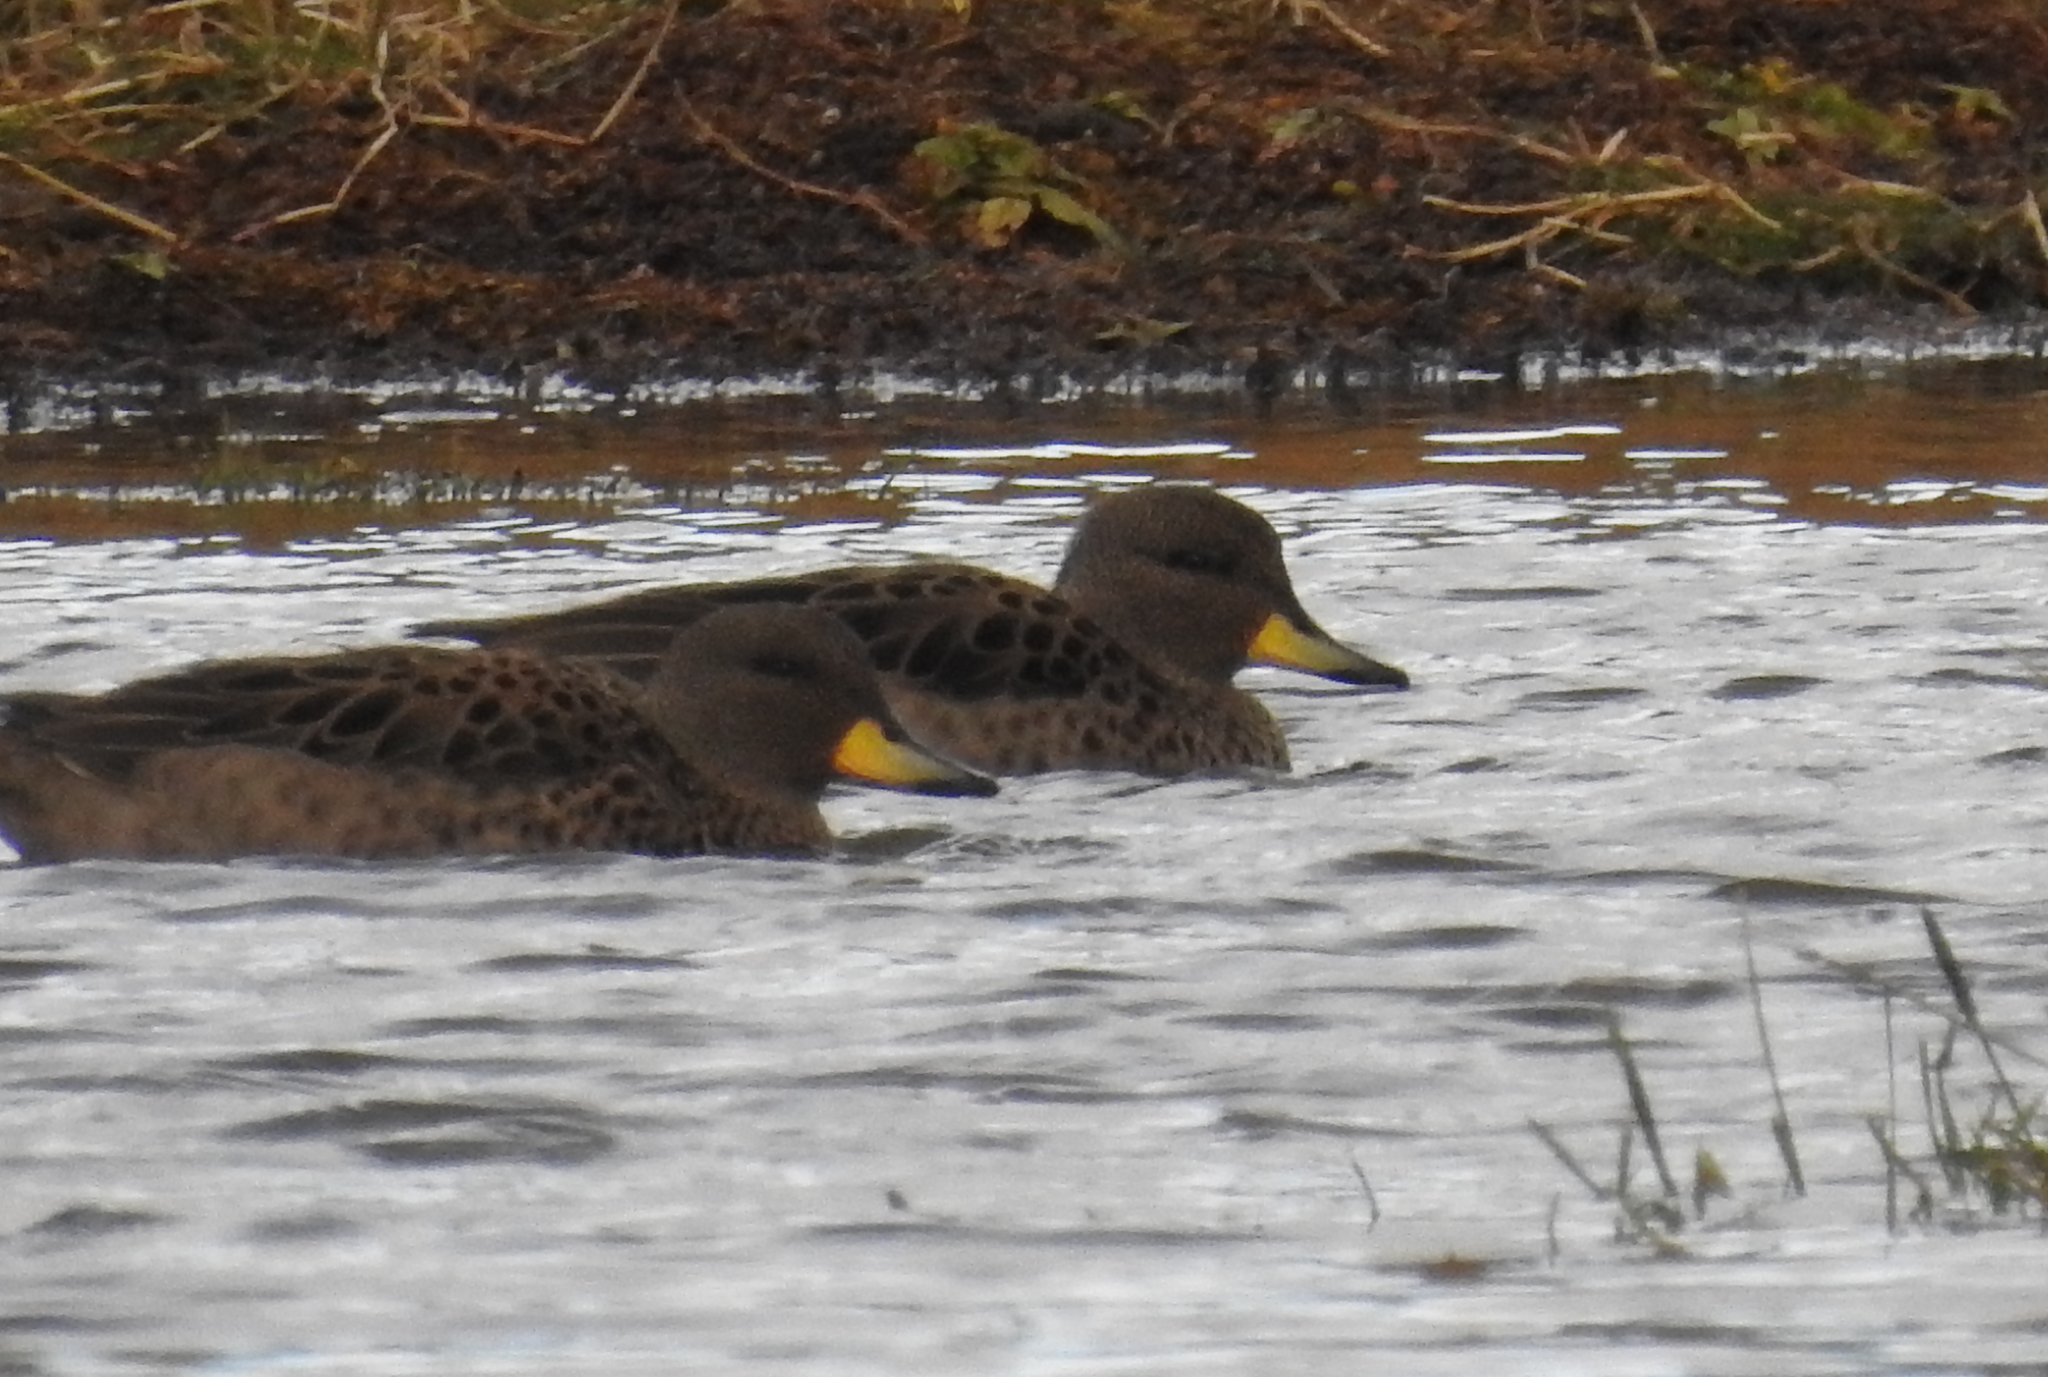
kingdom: Animalia
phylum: Chordata
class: Aves
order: Anseriformes
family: Anatidae
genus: Anas
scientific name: Anas flavirostris
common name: Yellow-billed teal
